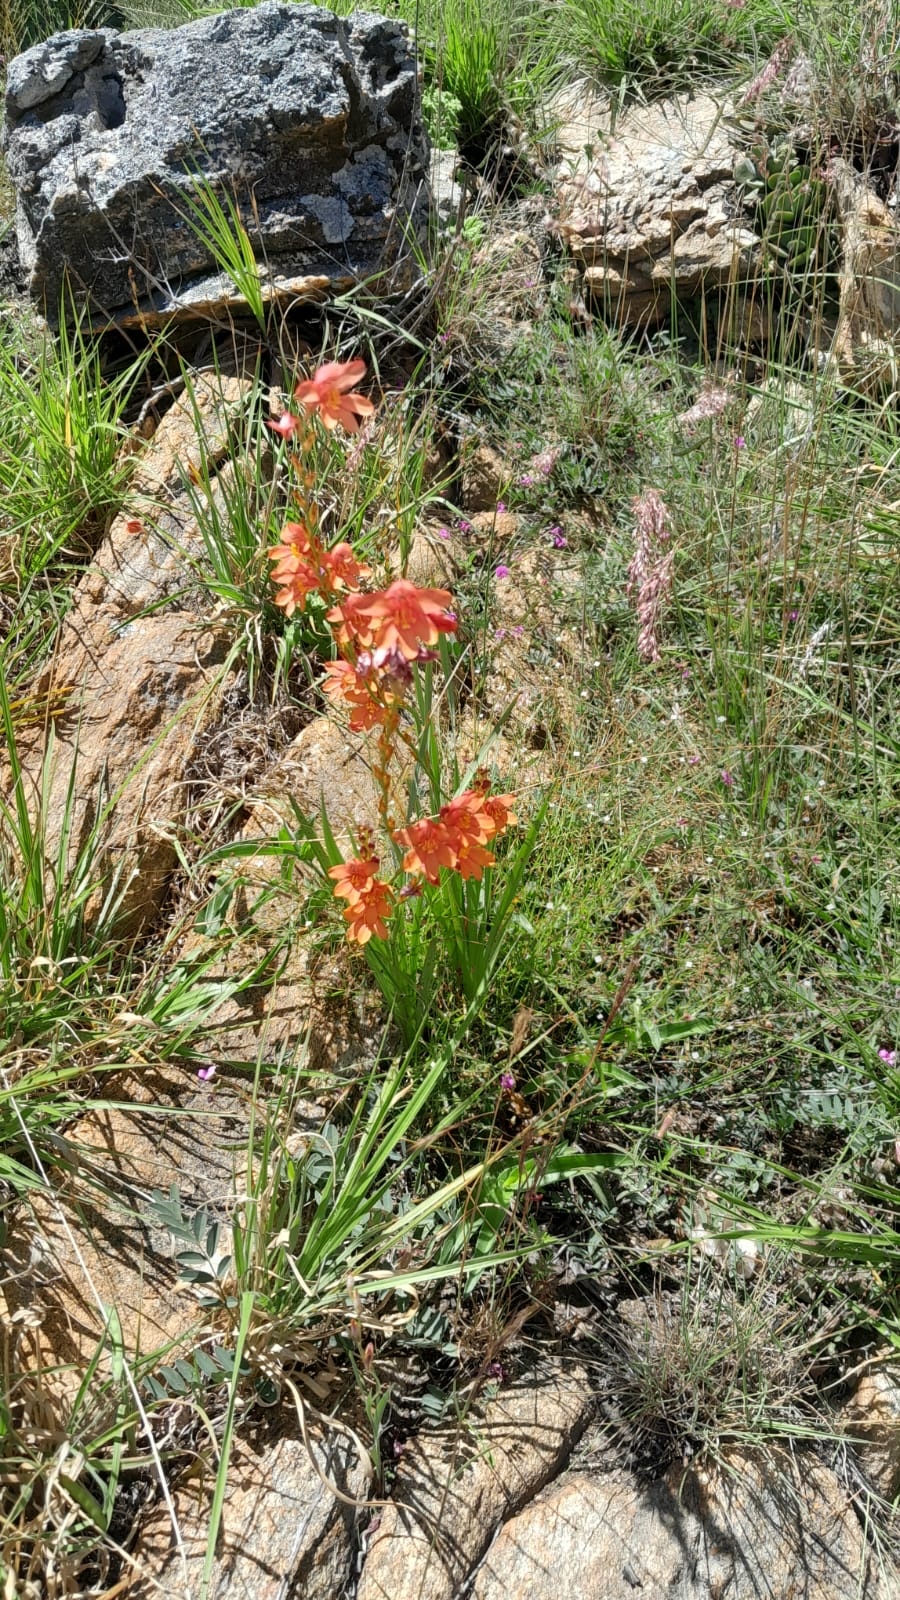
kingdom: Plantae
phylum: Tracheophyta
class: Liliopsida
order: Asparagales
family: Iridaceae
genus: Tritonia
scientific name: Tritonia nelsonii
